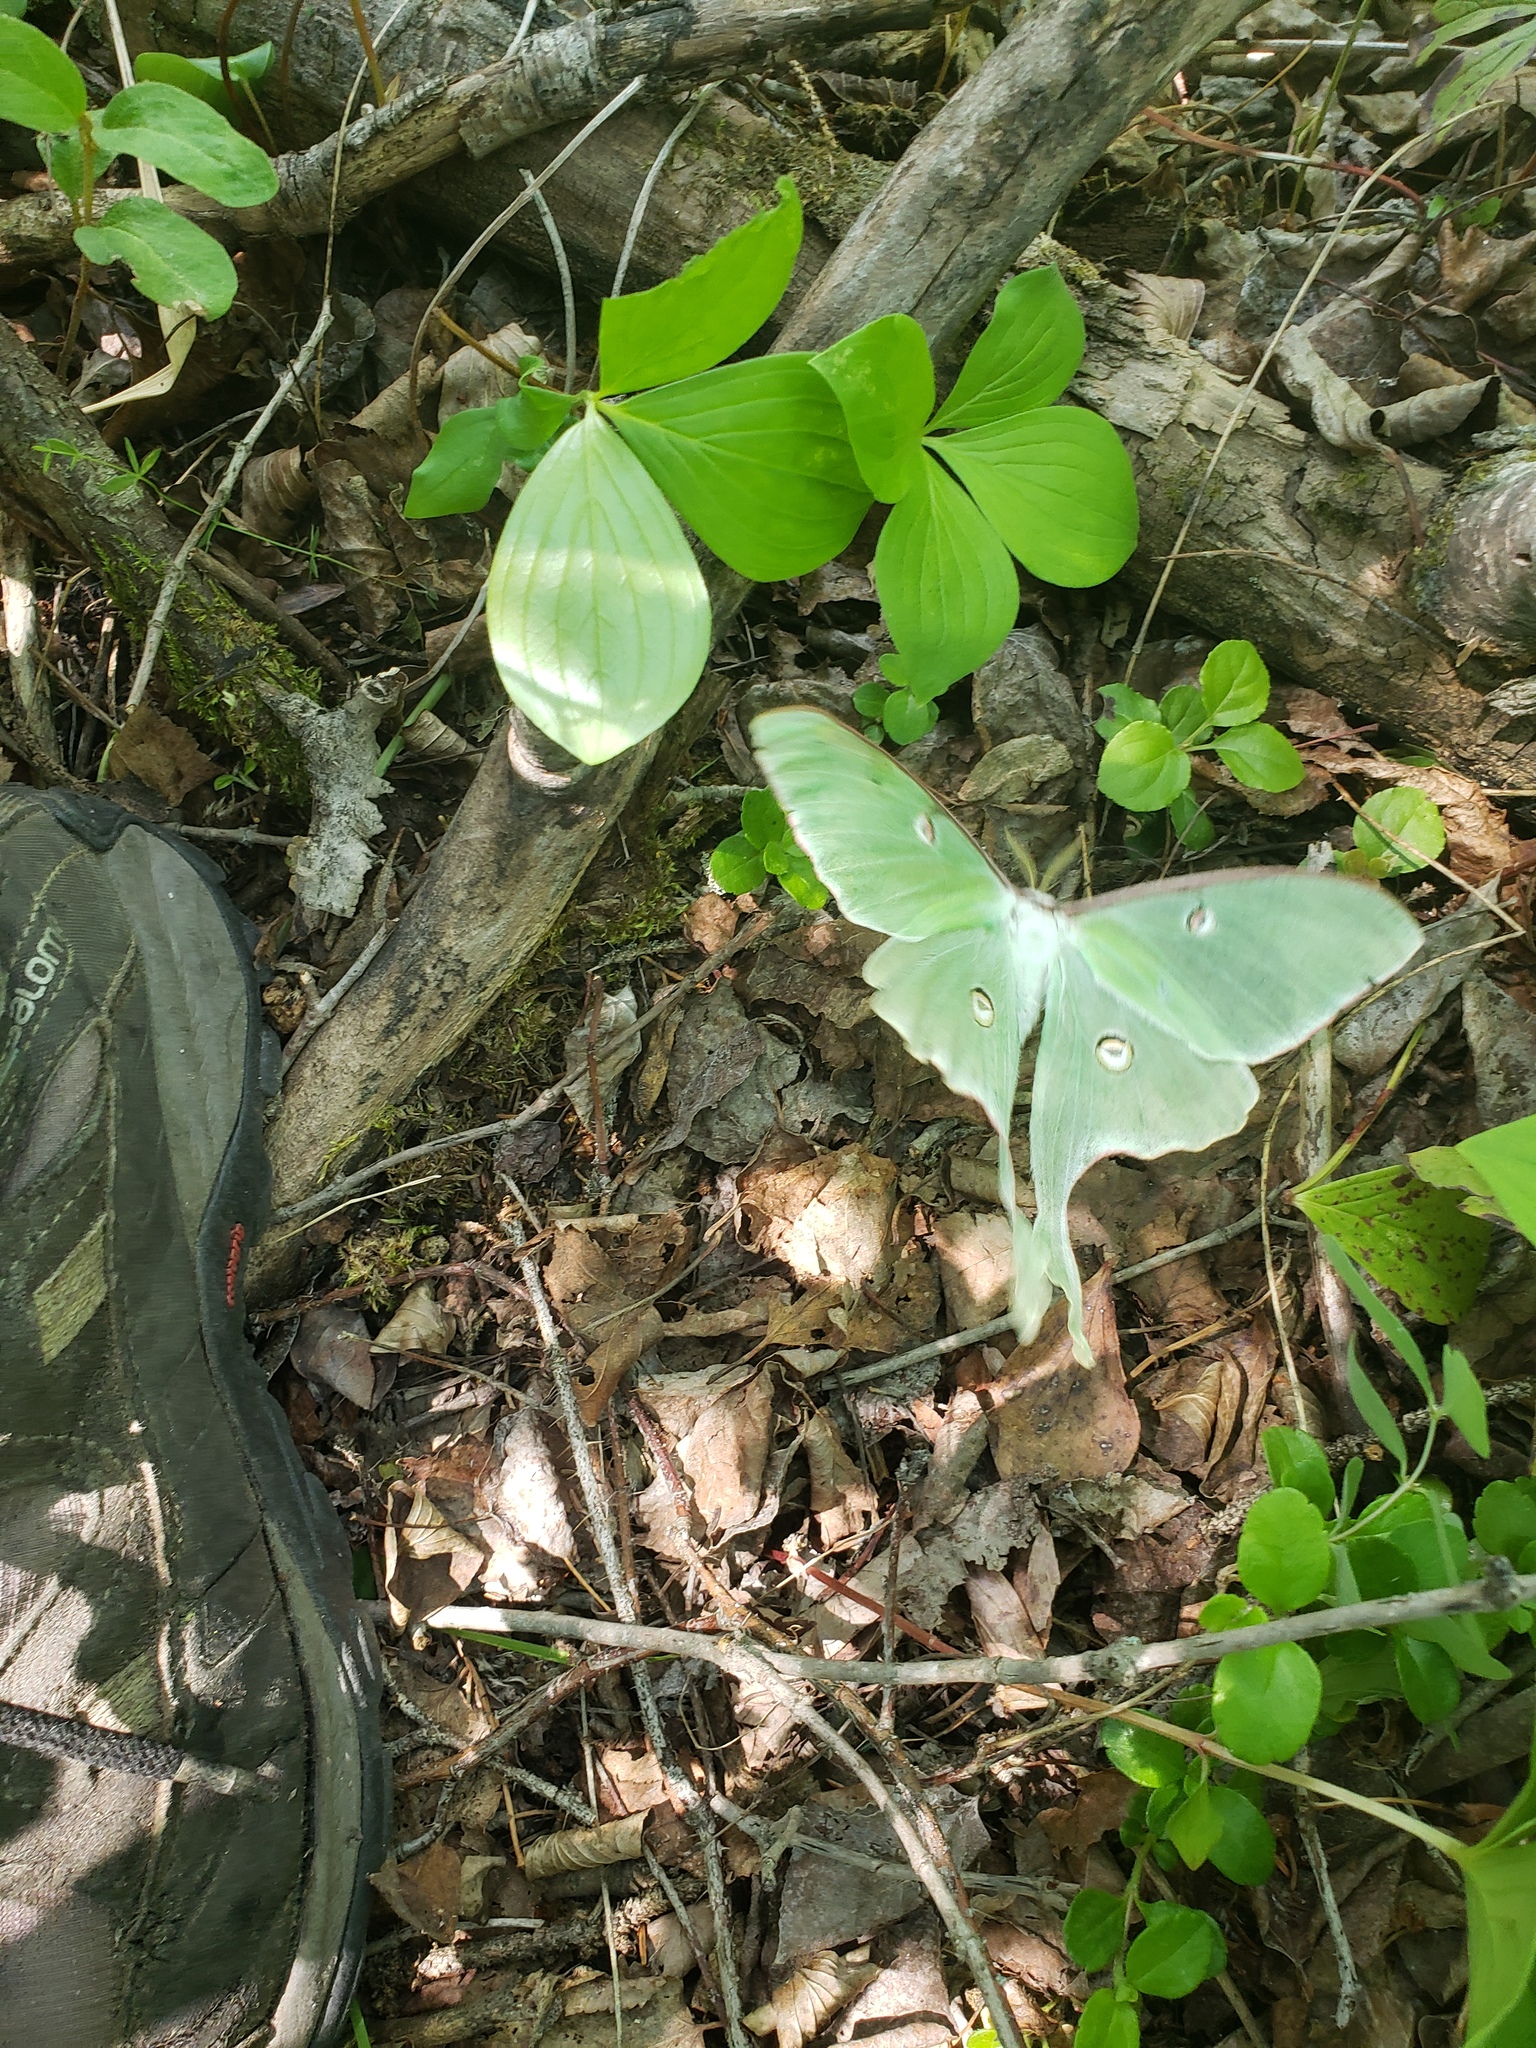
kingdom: Animalia
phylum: Arthropoda
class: Insecta
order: Lepidoptera
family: Saturniidae
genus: Actias
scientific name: Actias luna
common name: Luna moth
